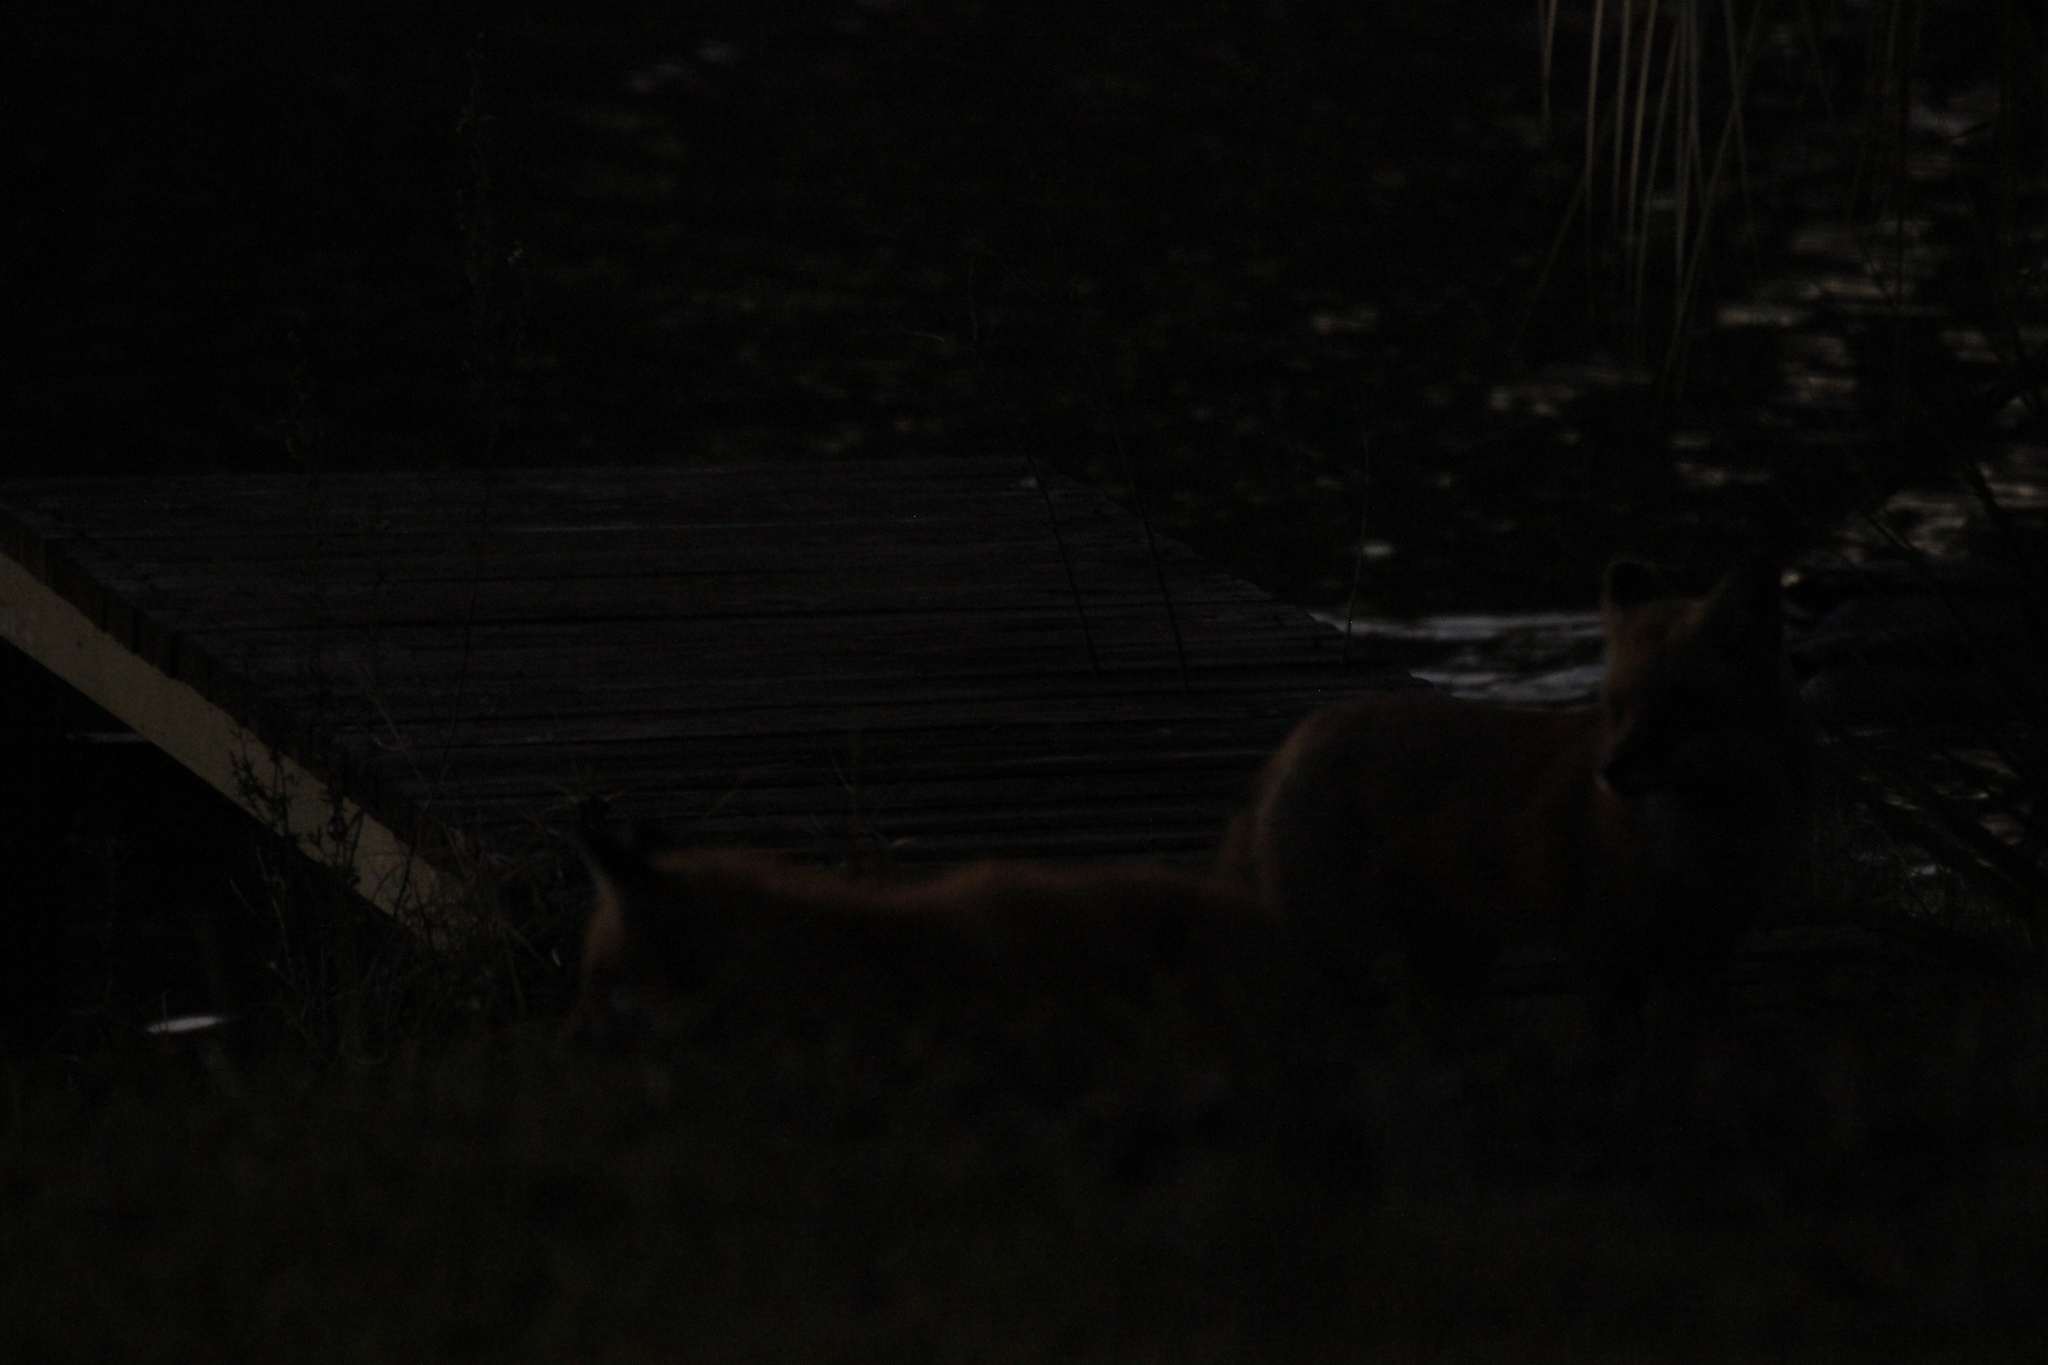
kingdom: Animalia
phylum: Chordata
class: Mammalia
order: Carnivora
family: Canidae
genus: Vulpes
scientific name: Vulpes vulpes
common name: Red fox
